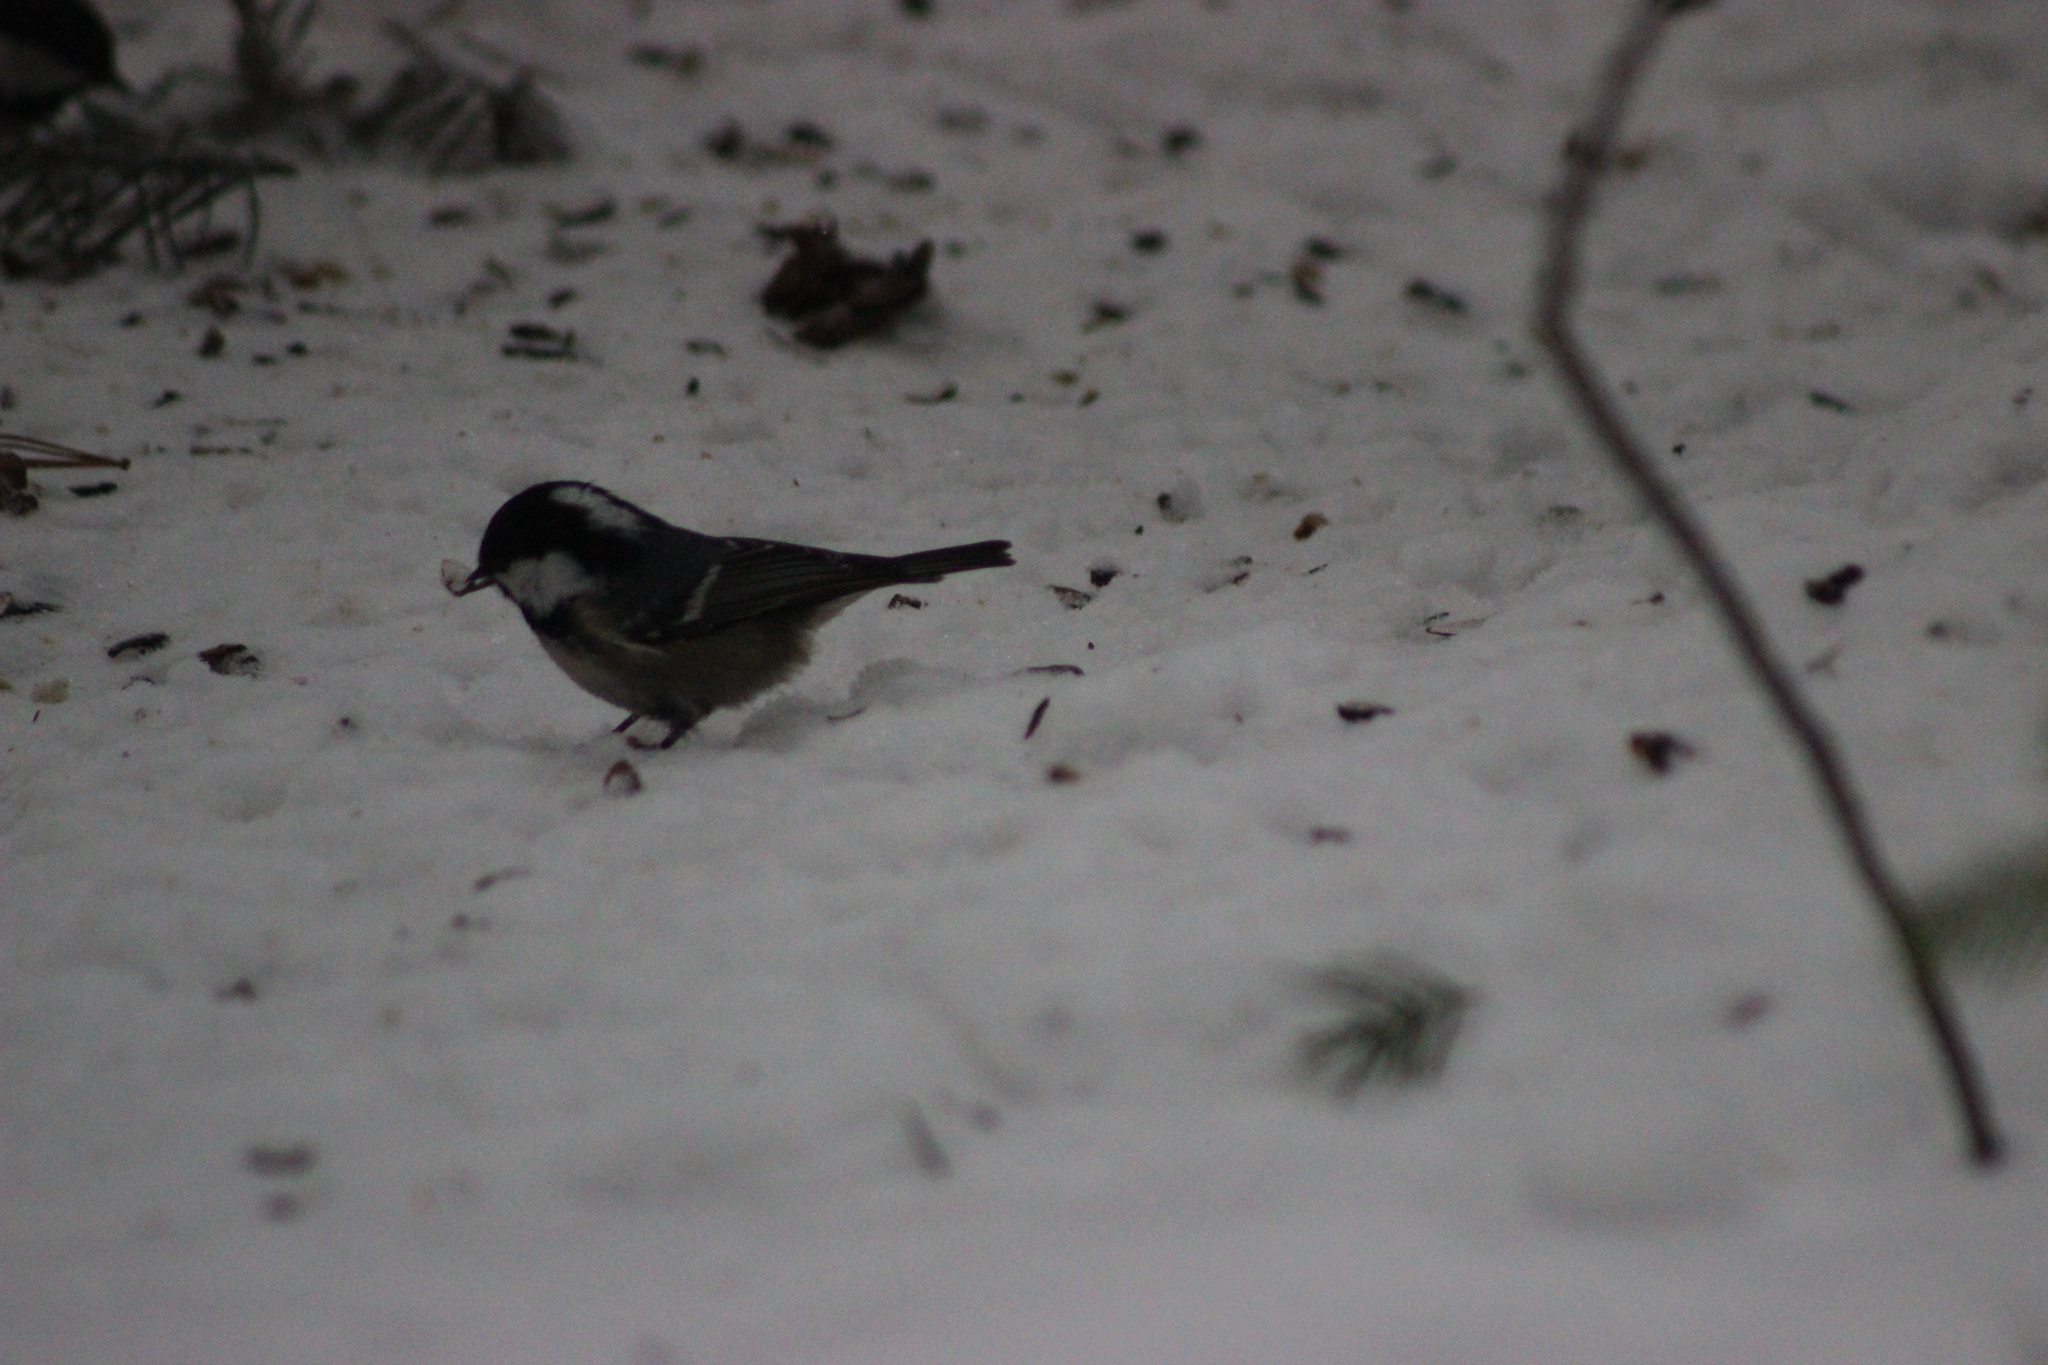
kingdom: Animalia
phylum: Chordata
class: Aves
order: Passeriformes
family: Paridae
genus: Periparus
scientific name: Periparus ater
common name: Coal tit
